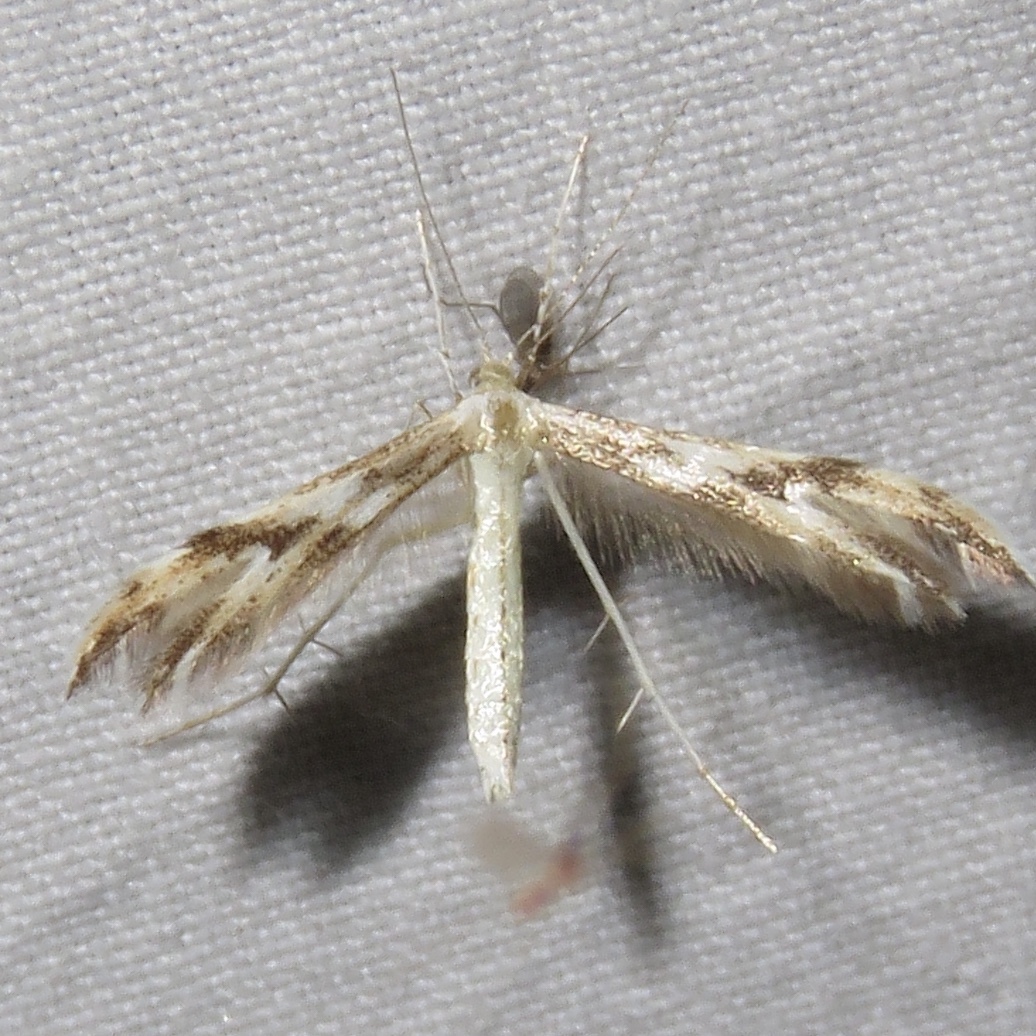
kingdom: Animalia
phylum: Arthropoda
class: Insecta
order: Lepidoptera
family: Pterophoridae
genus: Adaina
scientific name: Adaina montanus
